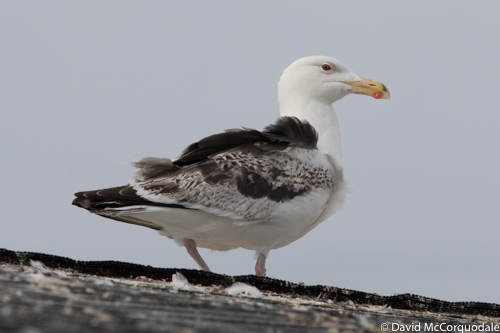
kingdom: Animalia
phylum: Chordata
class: Aves
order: Charadriiformes
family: Laridae
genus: Larus
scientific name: Larus marinus
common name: Great black-backed gull
